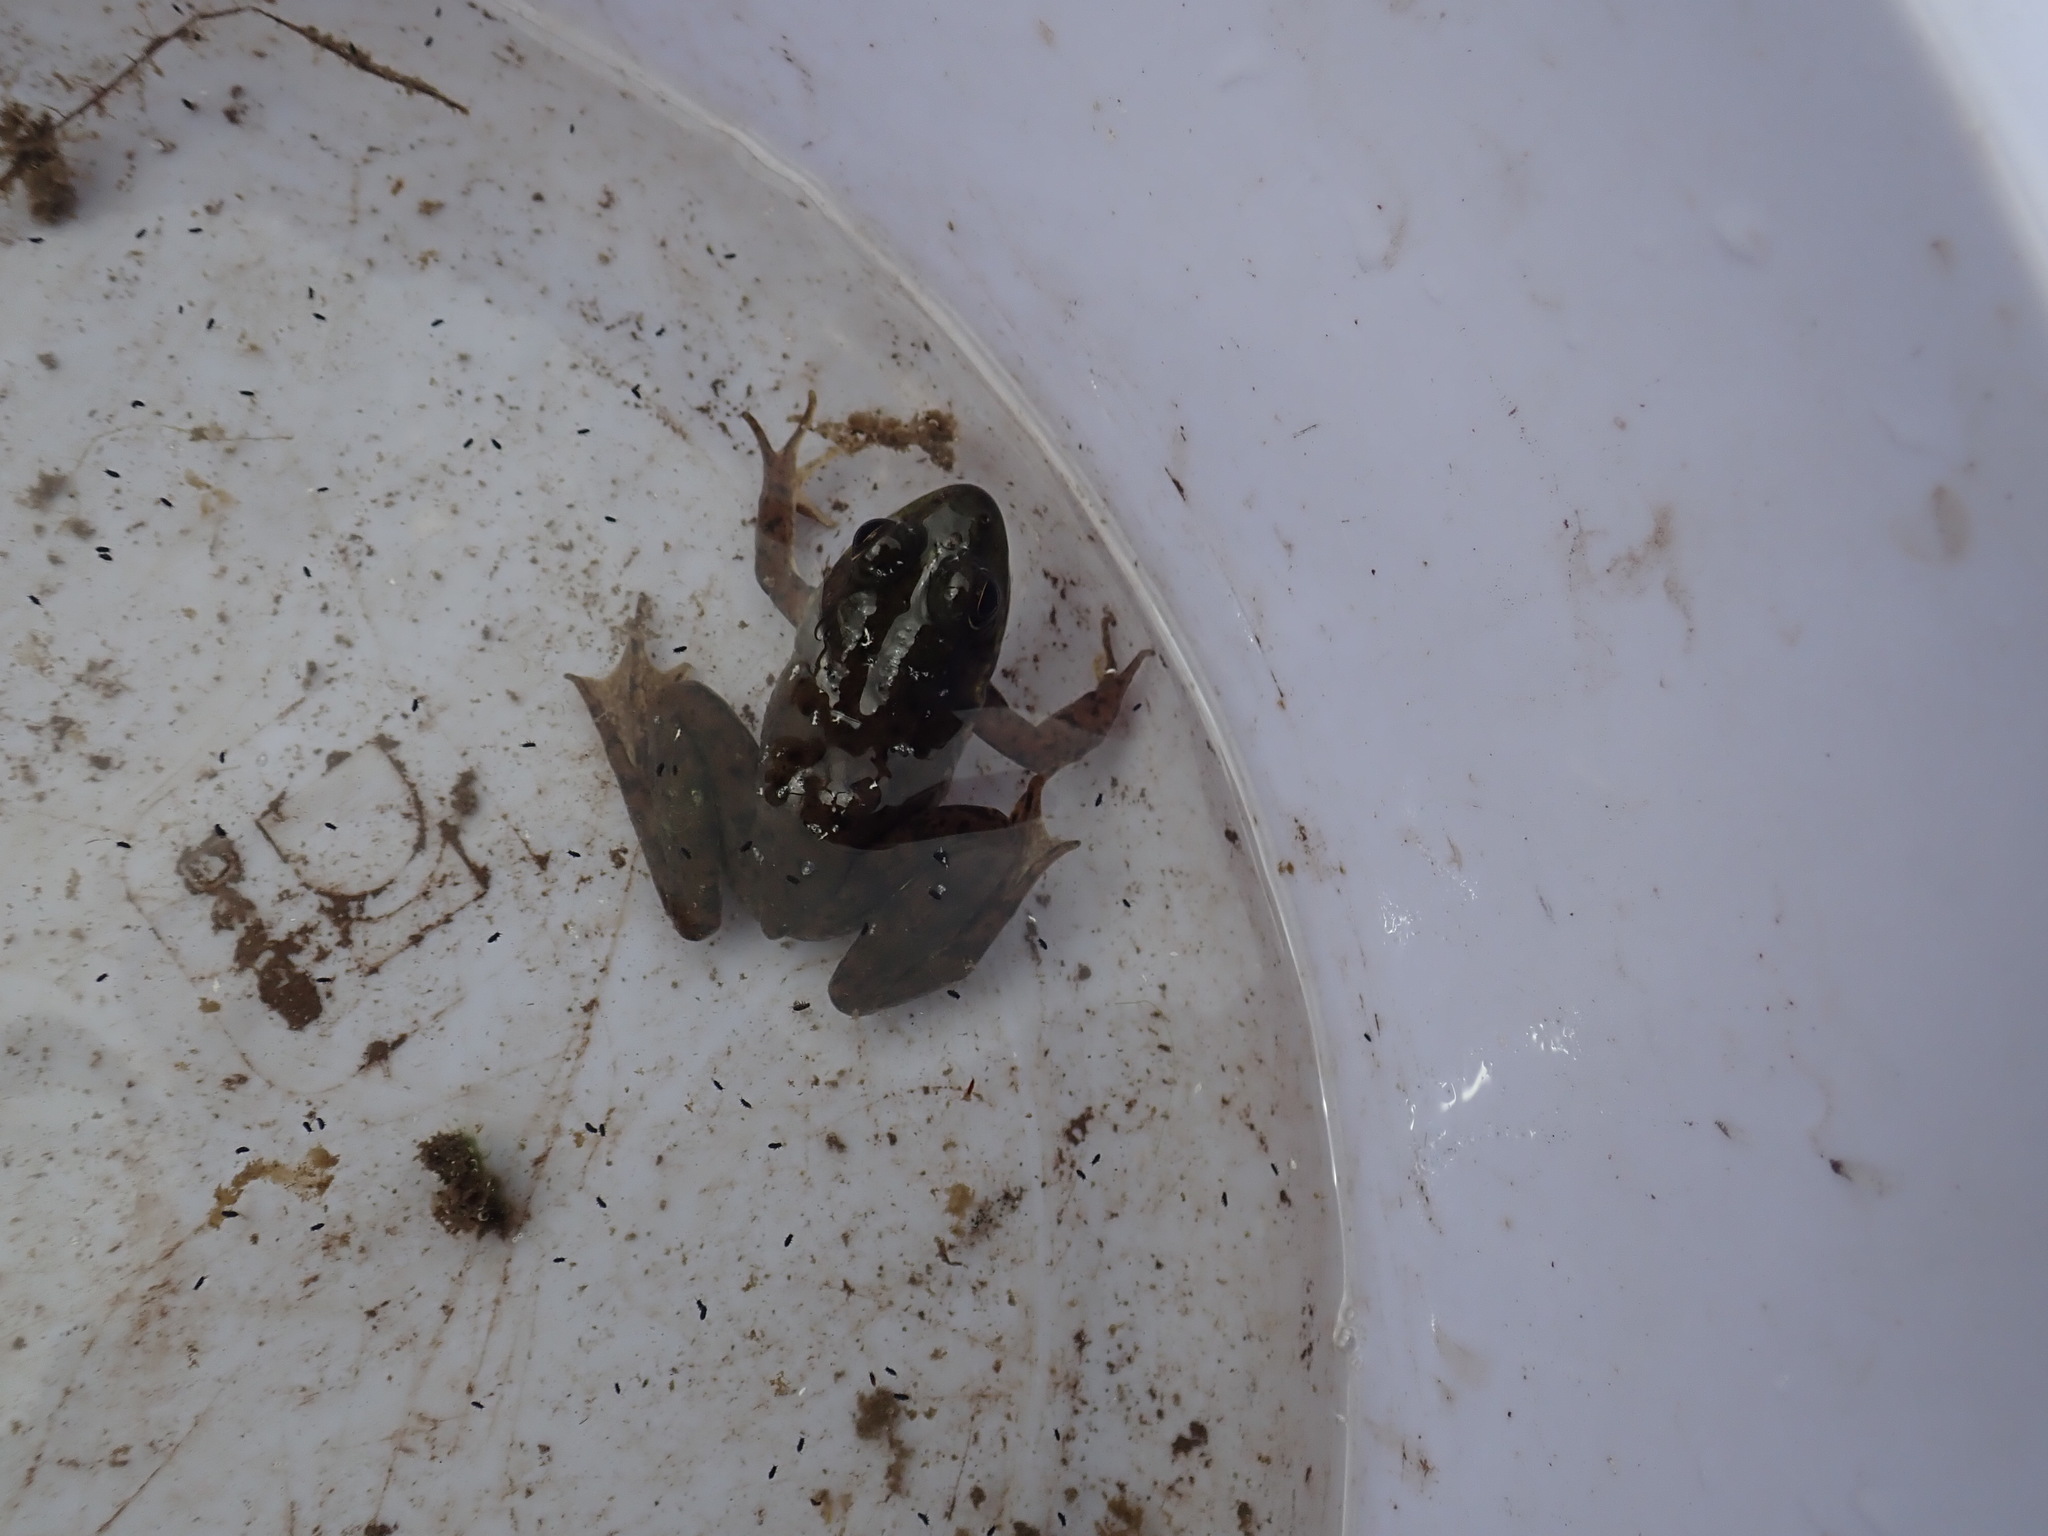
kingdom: Animalia
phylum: Chordata
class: Amphibia
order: Anura
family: Ranidae
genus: Lithobates
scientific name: Lithobates clamitans
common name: Green frog
